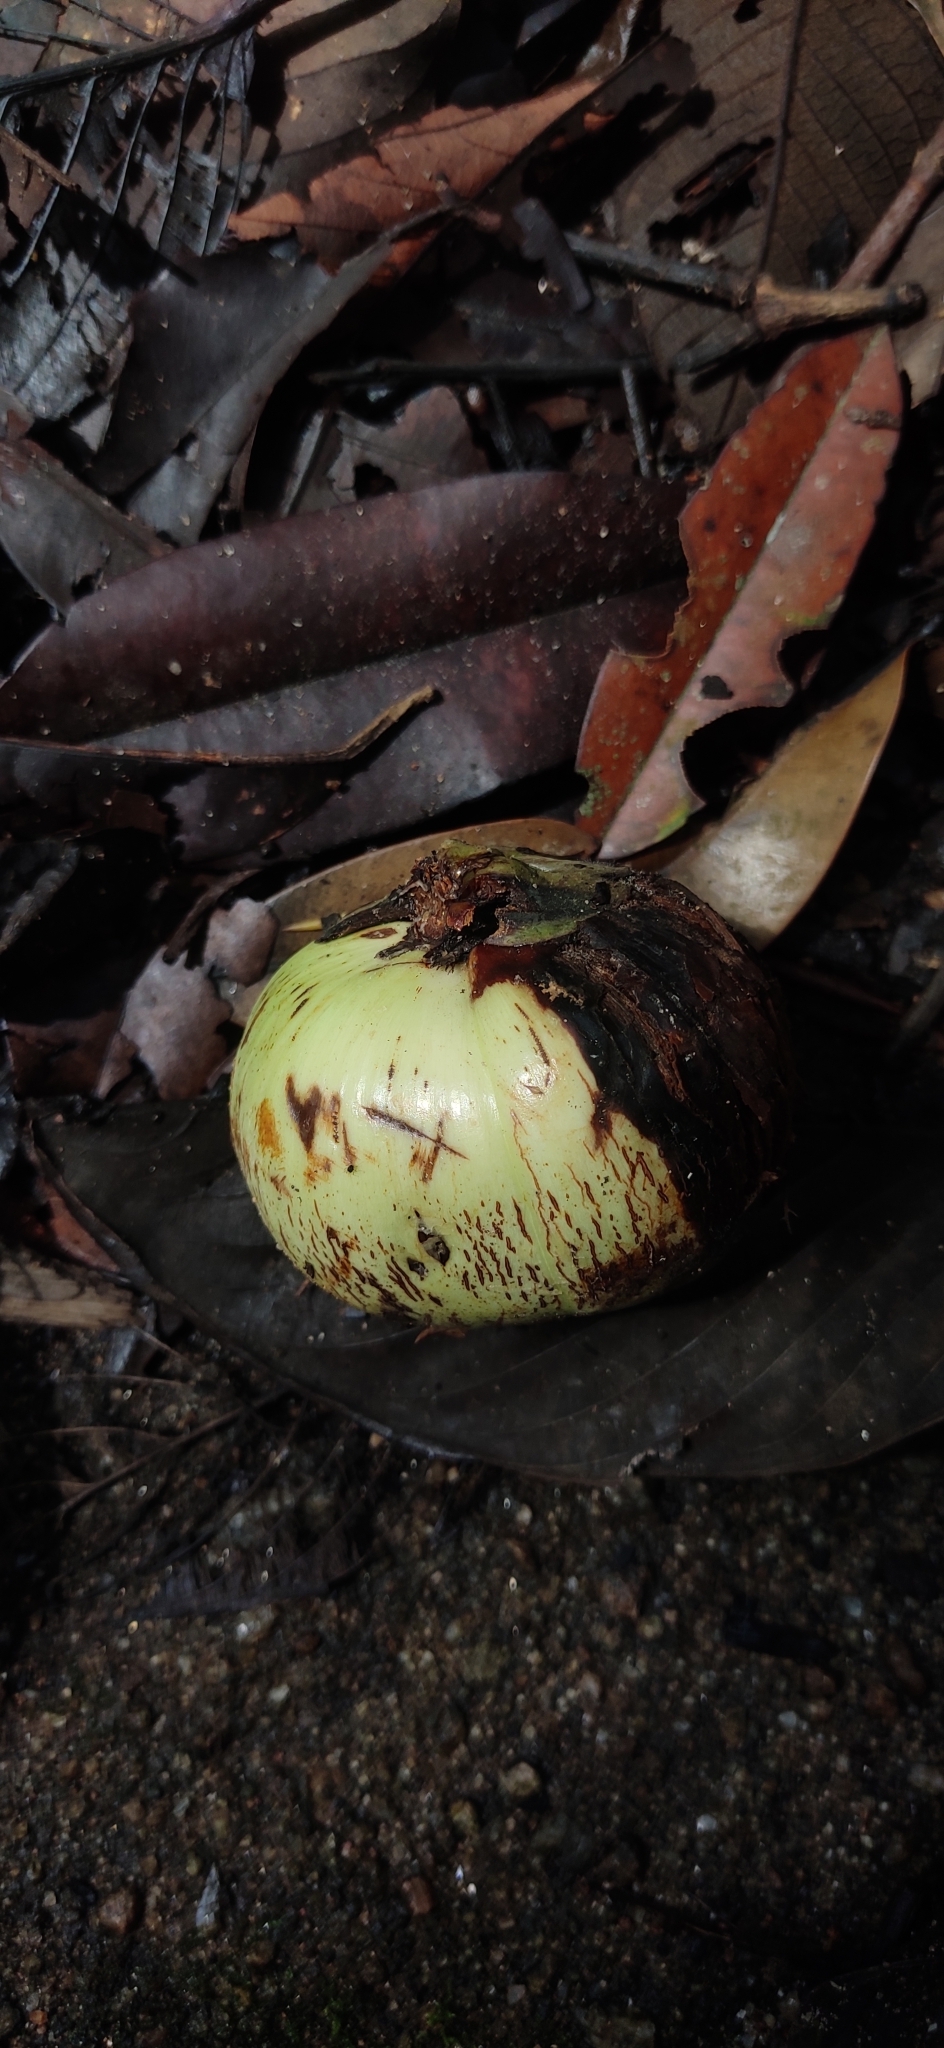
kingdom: Plantae
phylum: Tracheophyta
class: Magnoliopsida
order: Malpighiales
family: Calophyllaceae
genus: Mesua
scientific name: Mesua ferrea
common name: Mesua
